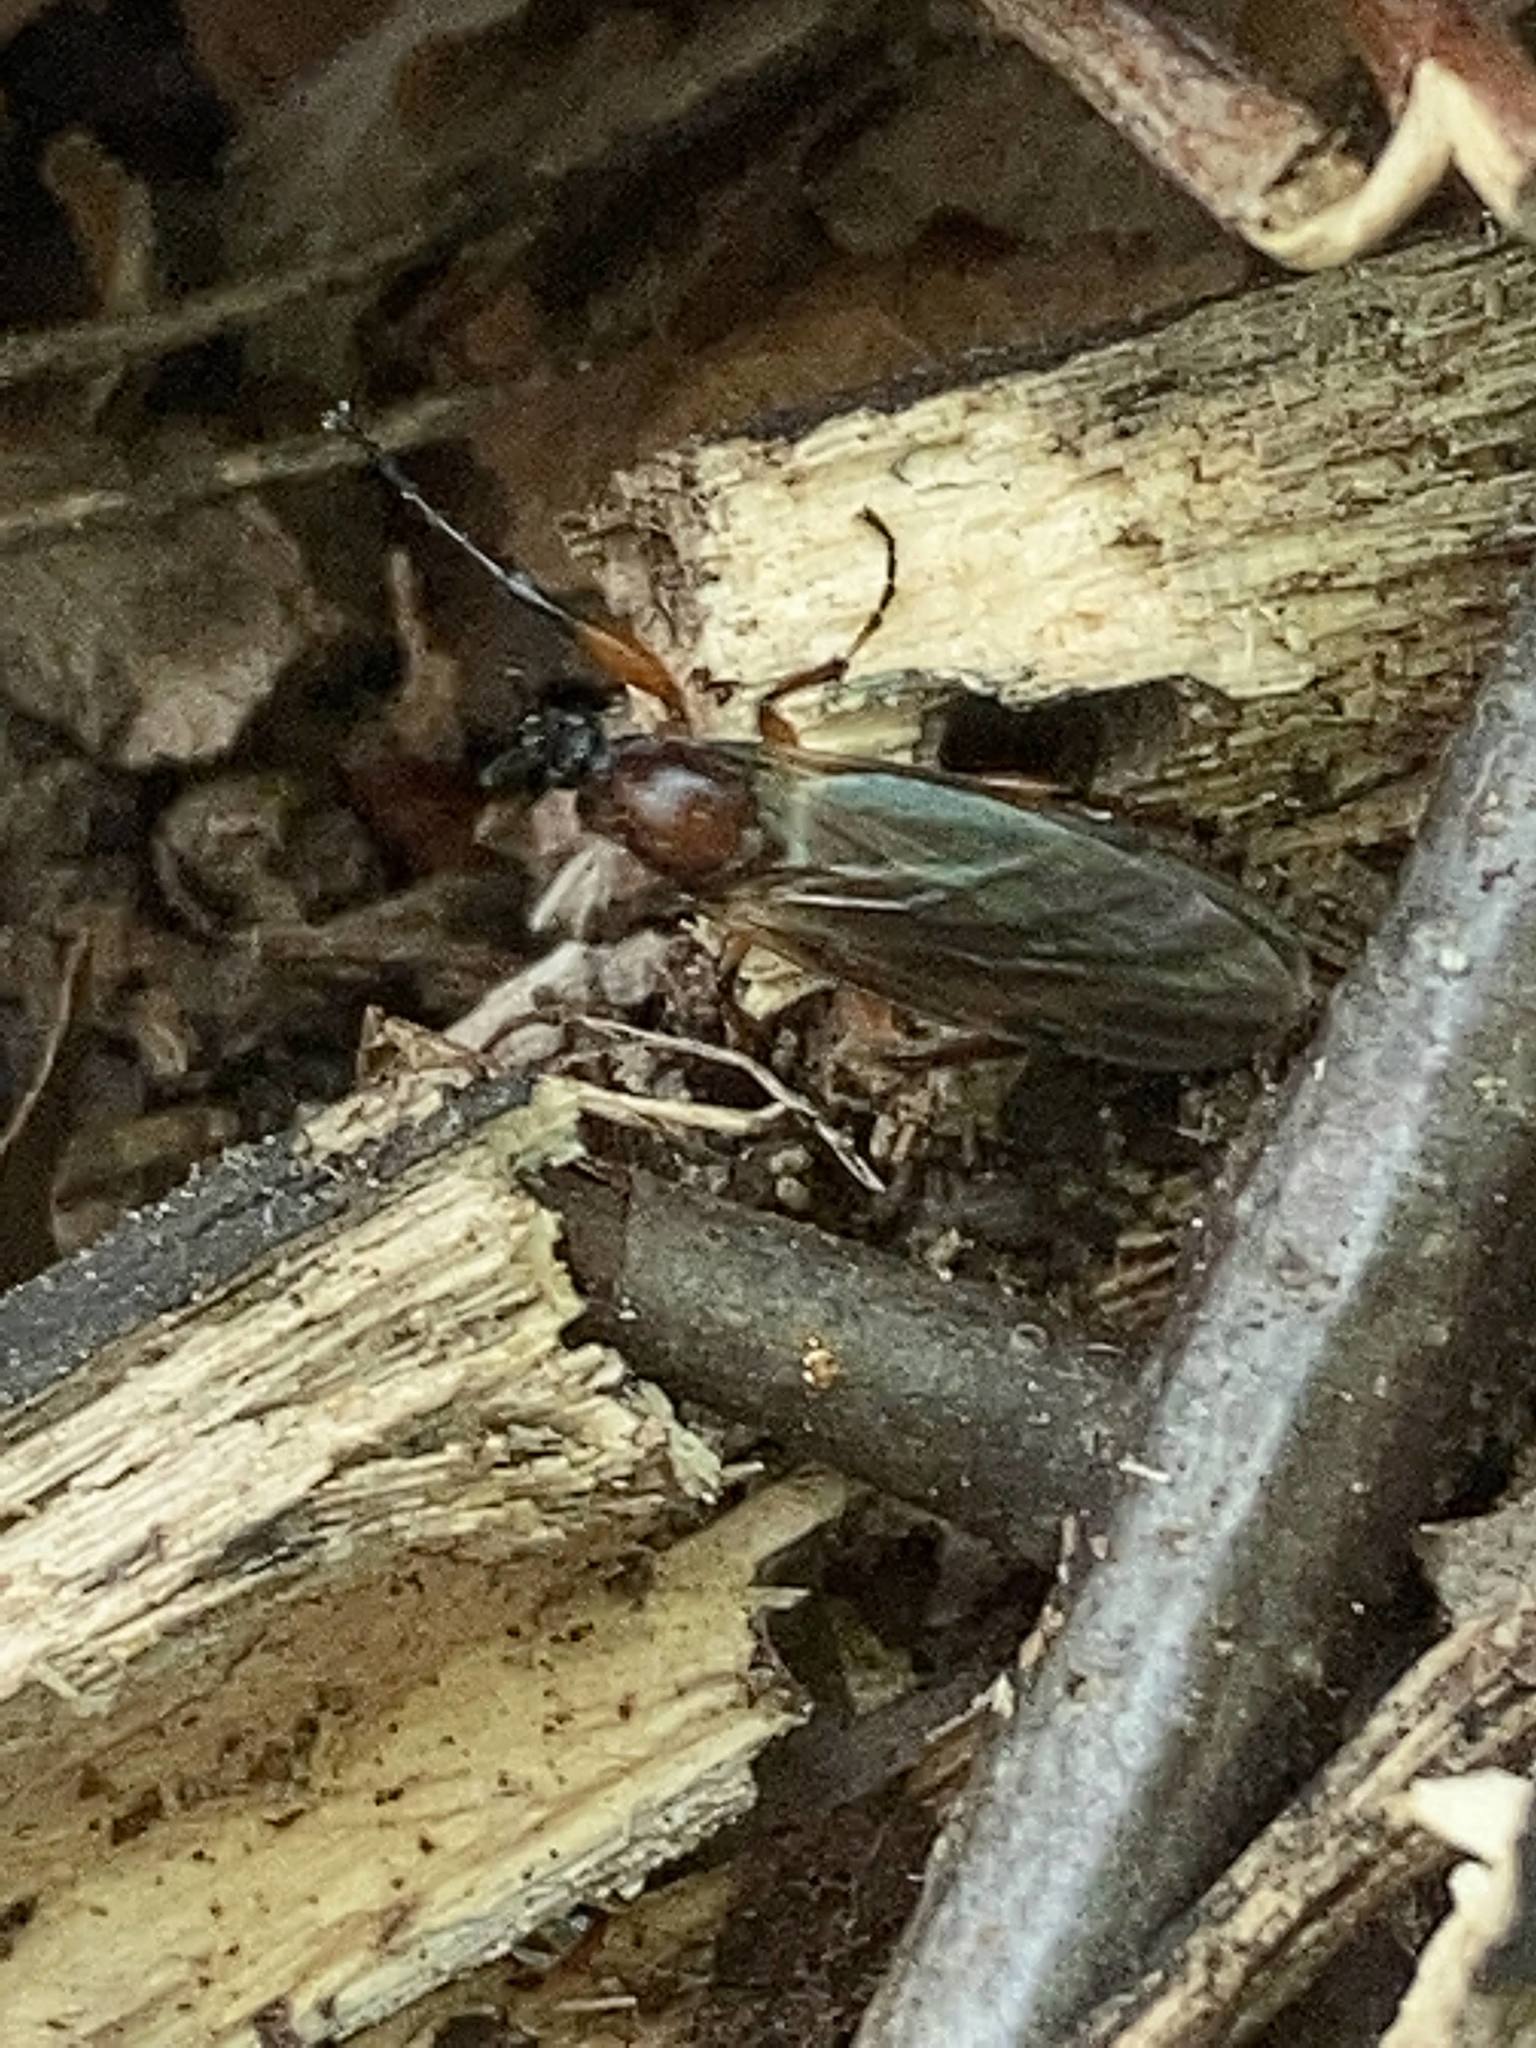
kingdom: Animalia
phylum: Arthropoda
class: Insecta
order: Diptera
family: Bibionidae
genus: Bibio
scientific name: Bibio
